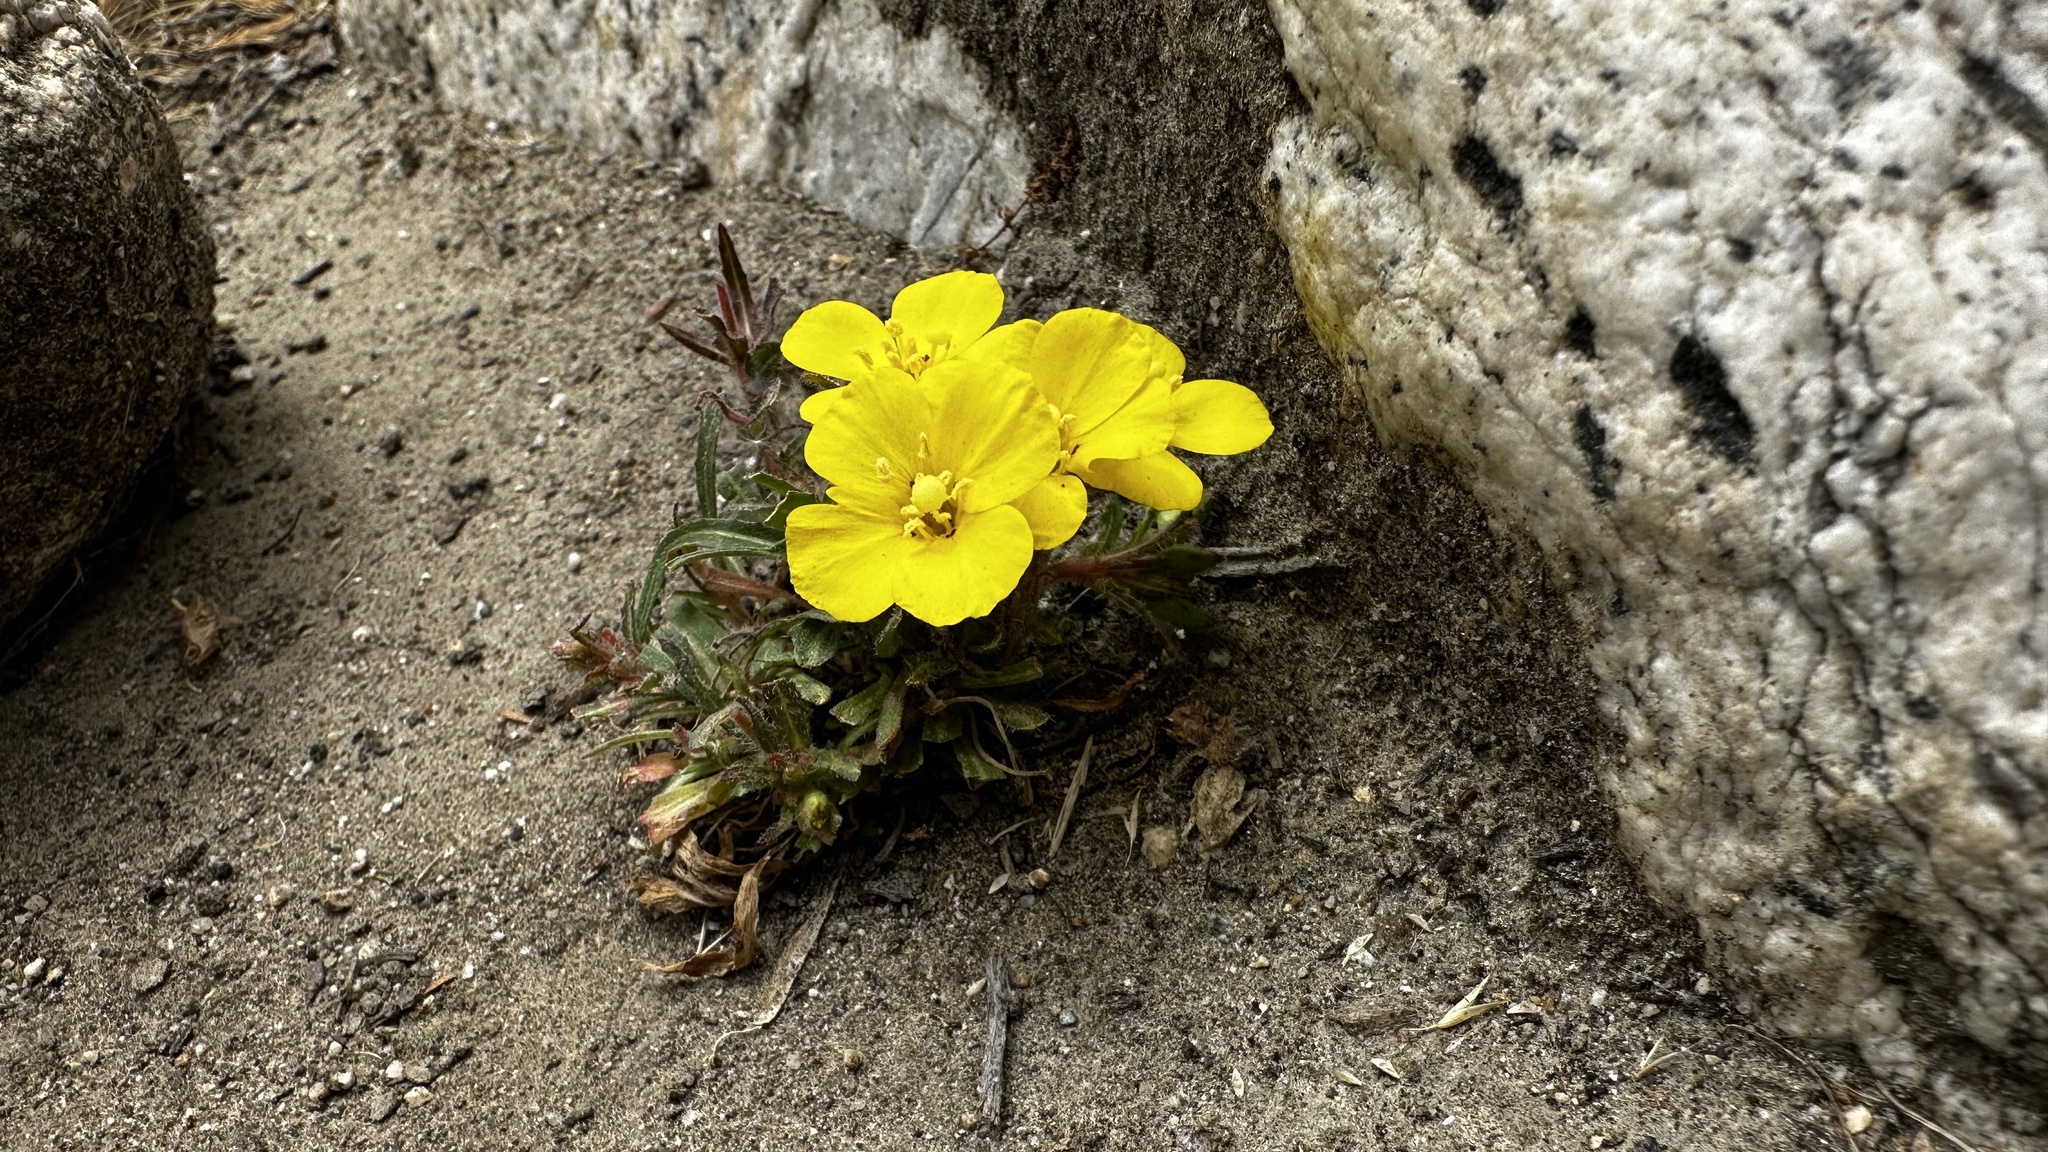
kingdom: Plantae
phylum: Tracheophyta
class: Magnoliopsida
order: Myrtales
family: Onagraceae
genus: Camissoniopsis
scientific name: Camissoniopsis bistorta
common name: Southern suncup
